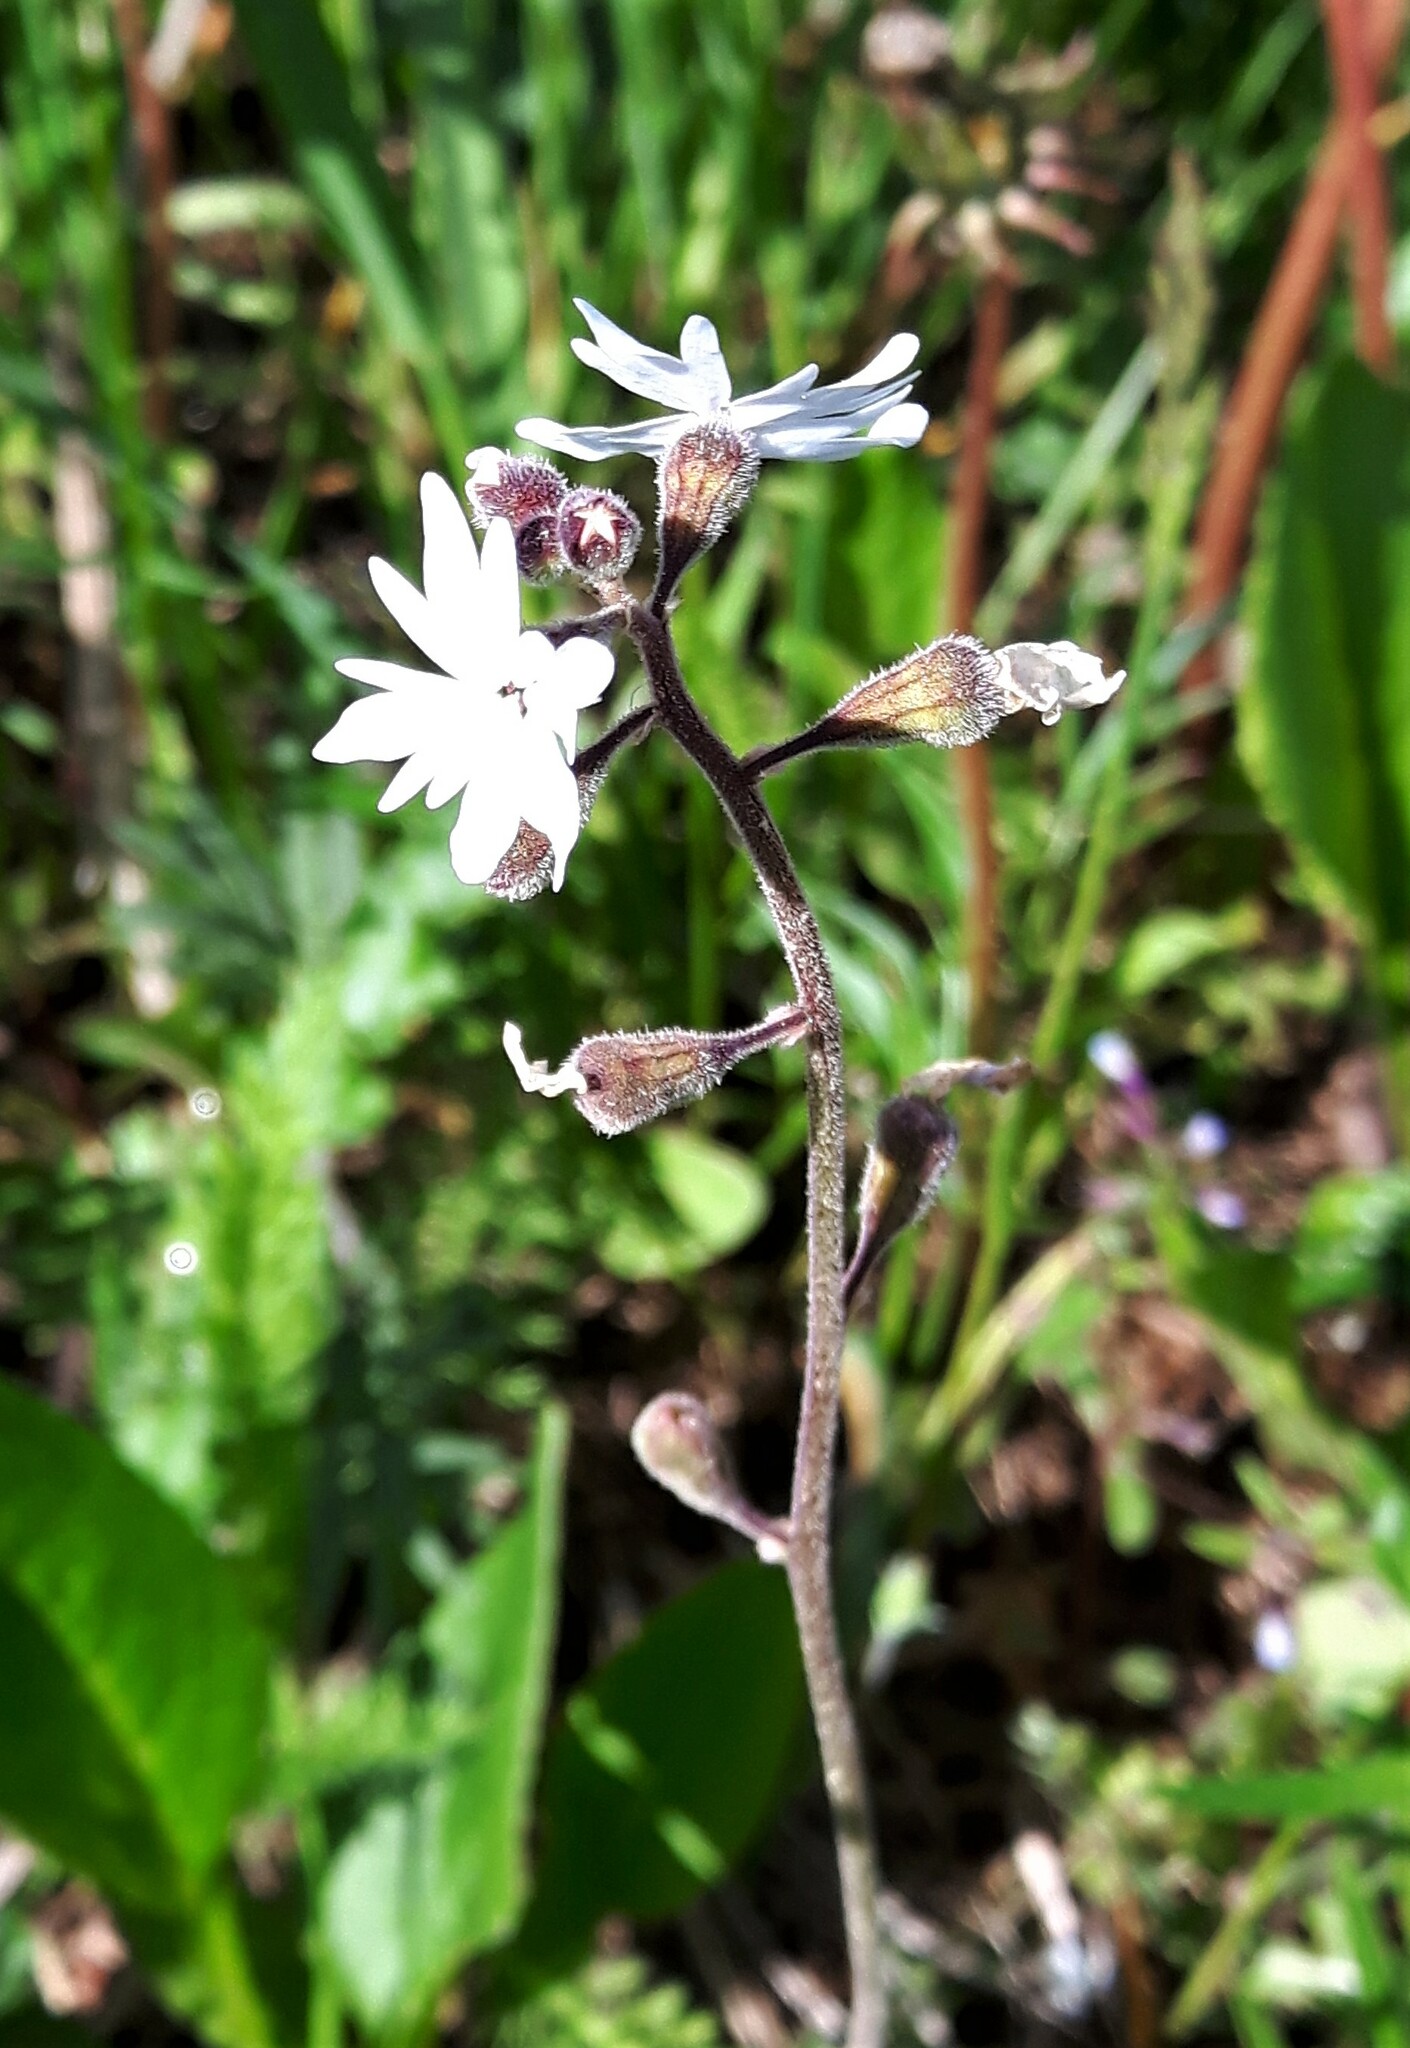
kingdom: Plantae
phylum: Tracheophyta
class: Magnoliopsida
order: Saxifragales
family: Saxifragaceae
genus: Lithophragma
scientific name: Lithophragma parviflorum
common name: Small-flowered fringe-cup
